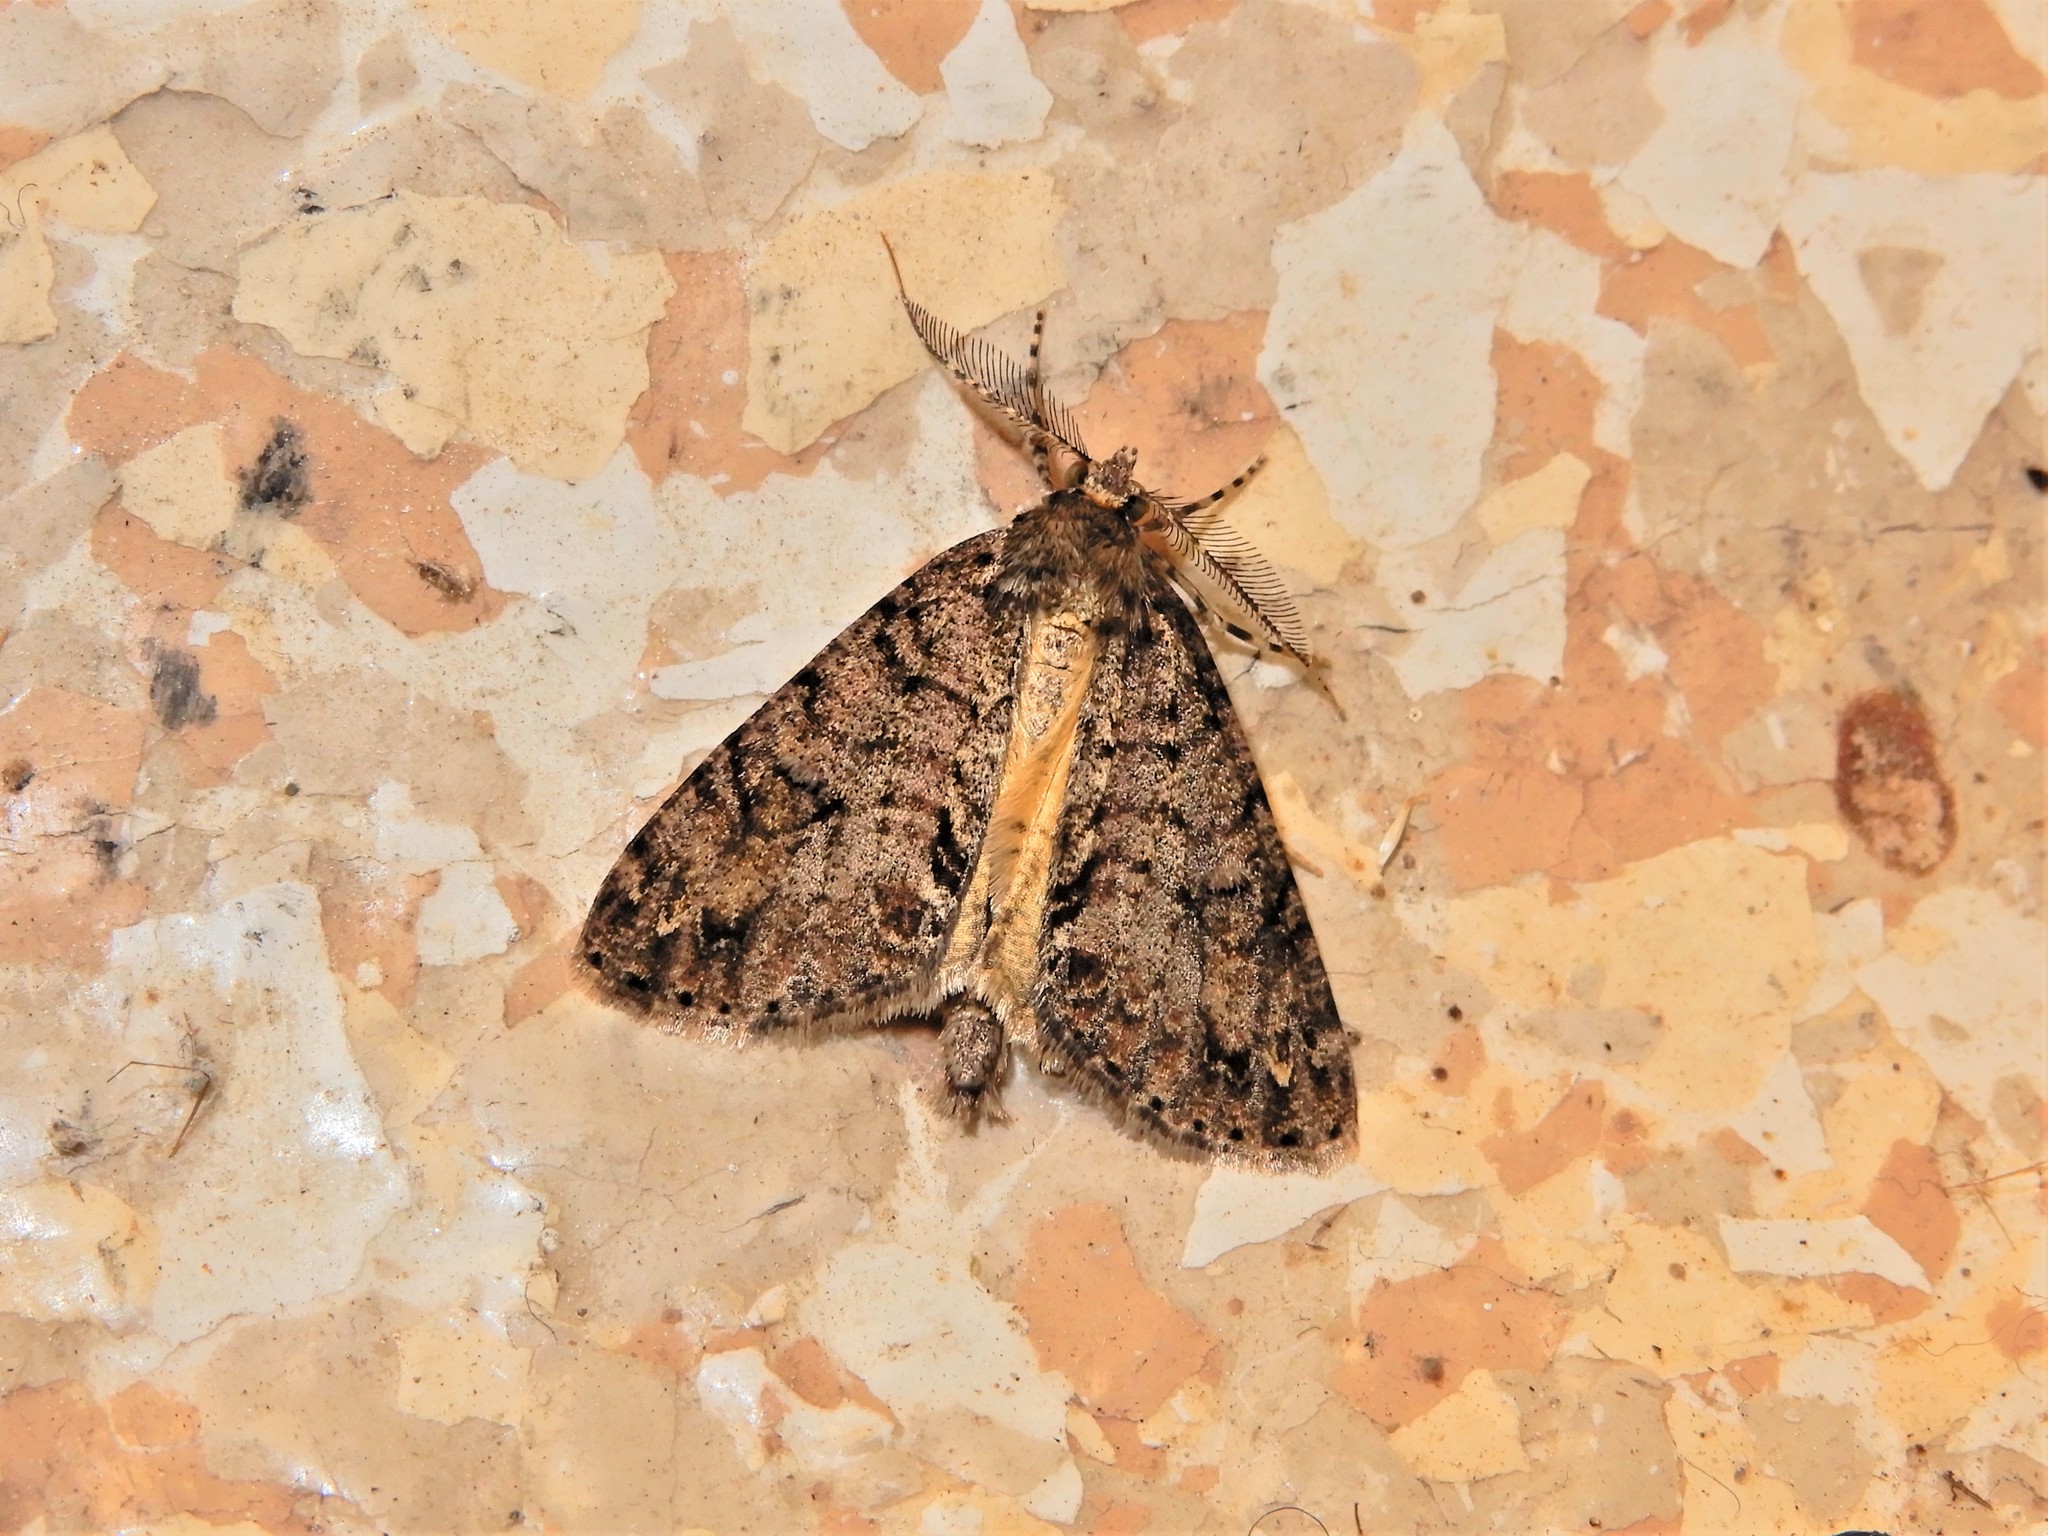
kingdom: Animalia
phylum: Arthropoda
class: Insecta
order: Lepidoptera
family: Geometridae
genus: Pseudocoremia
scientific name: Pseudocoremia suavis
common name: Common forest looper
